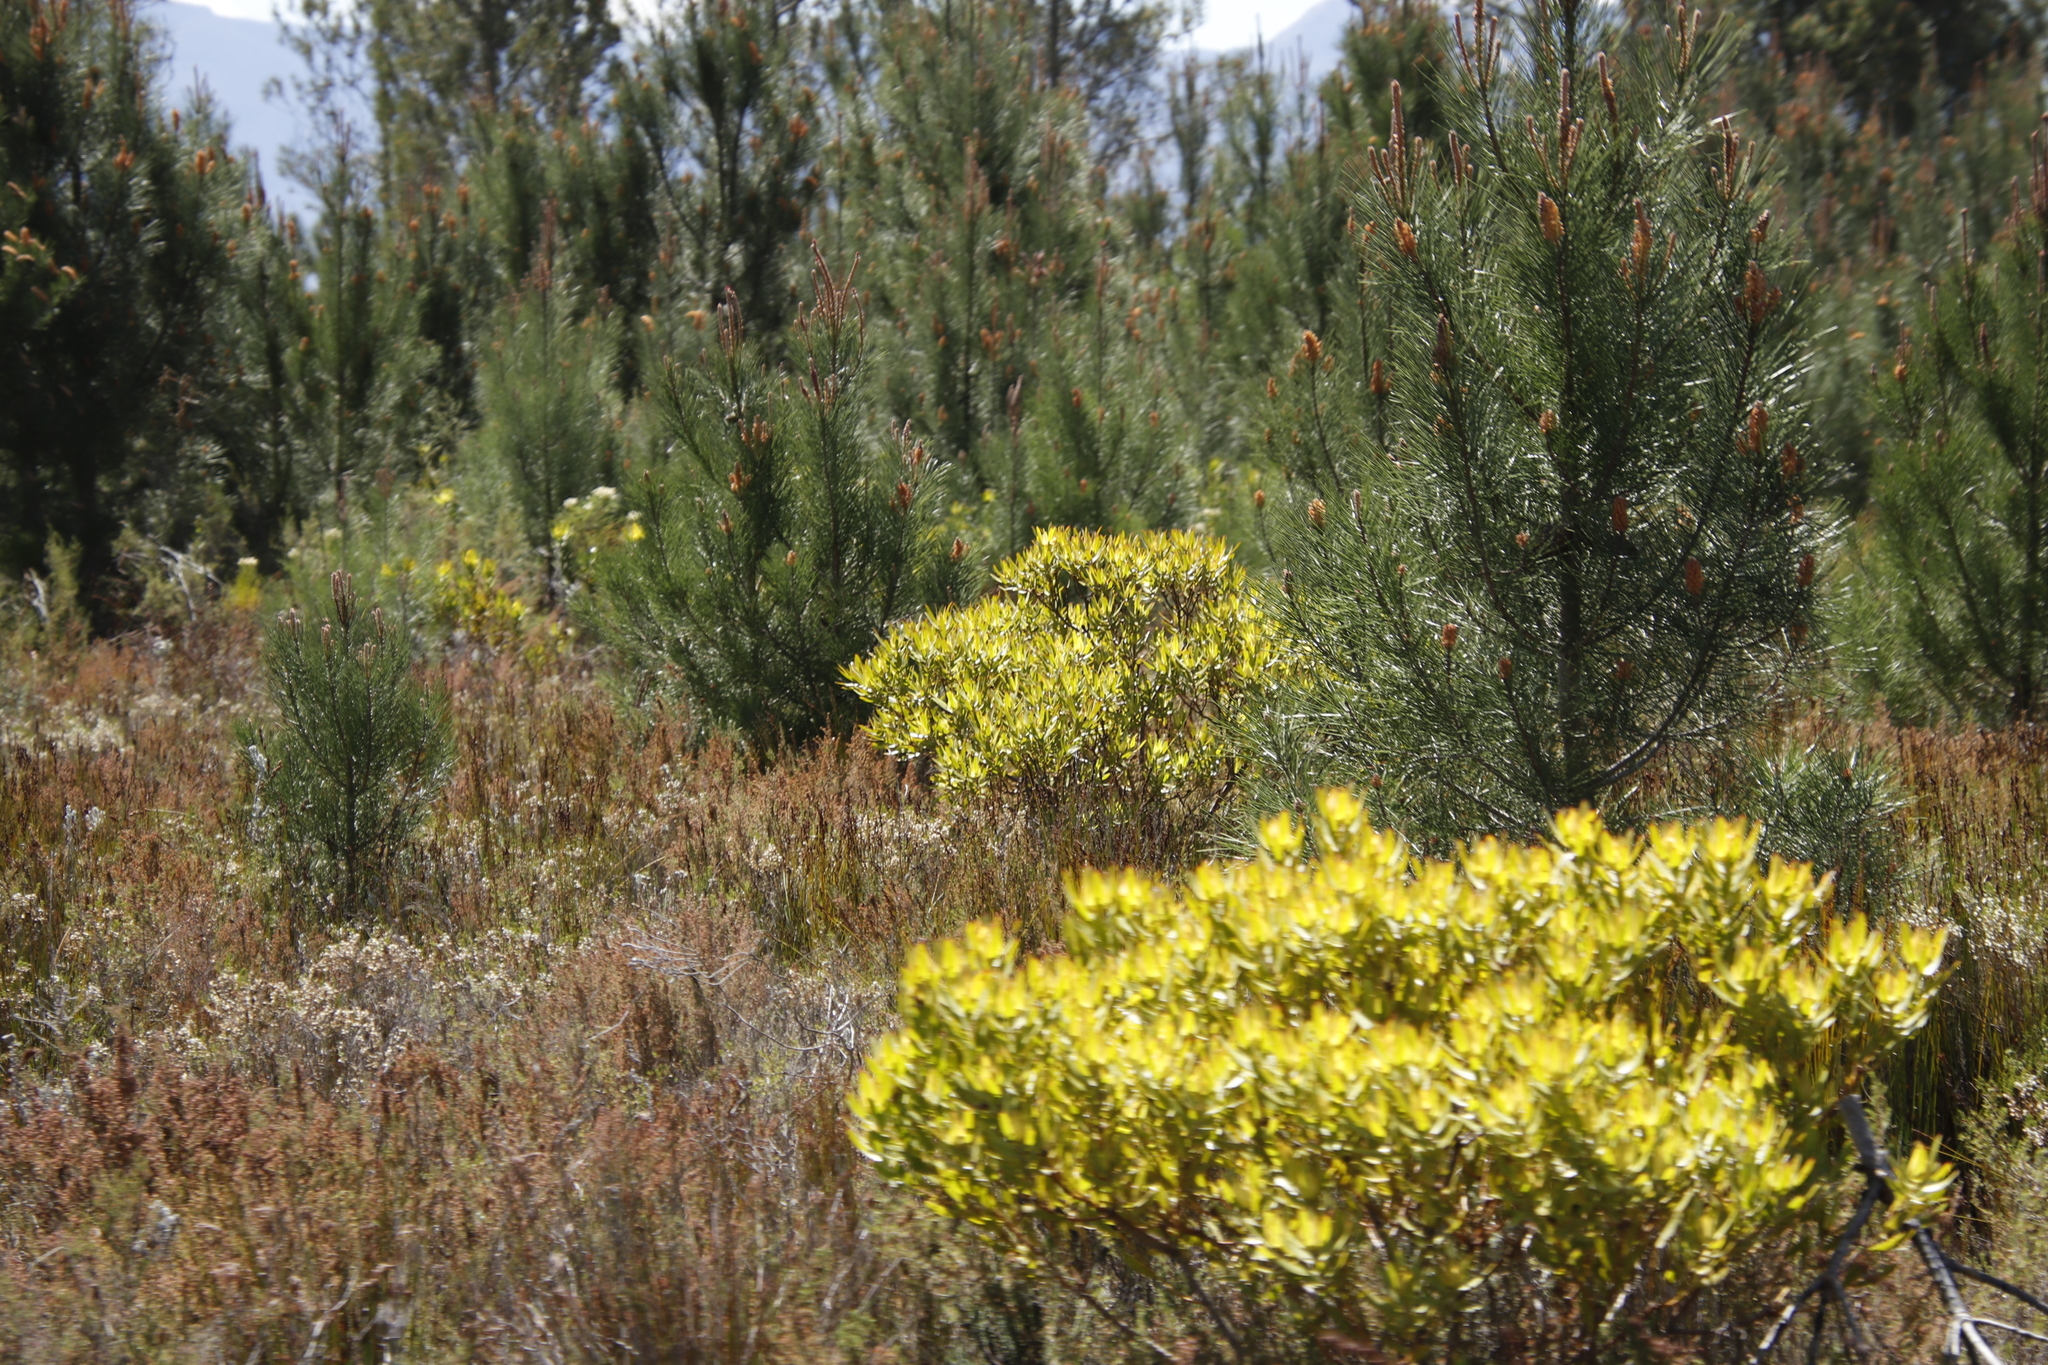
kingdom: Plantae
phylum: Tracheophyta
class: Magnoliopsida
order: Proteales
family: Proteaceae
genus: Leucadendron
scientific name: Leucadendron laureolum
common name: Golden sunshinebush
